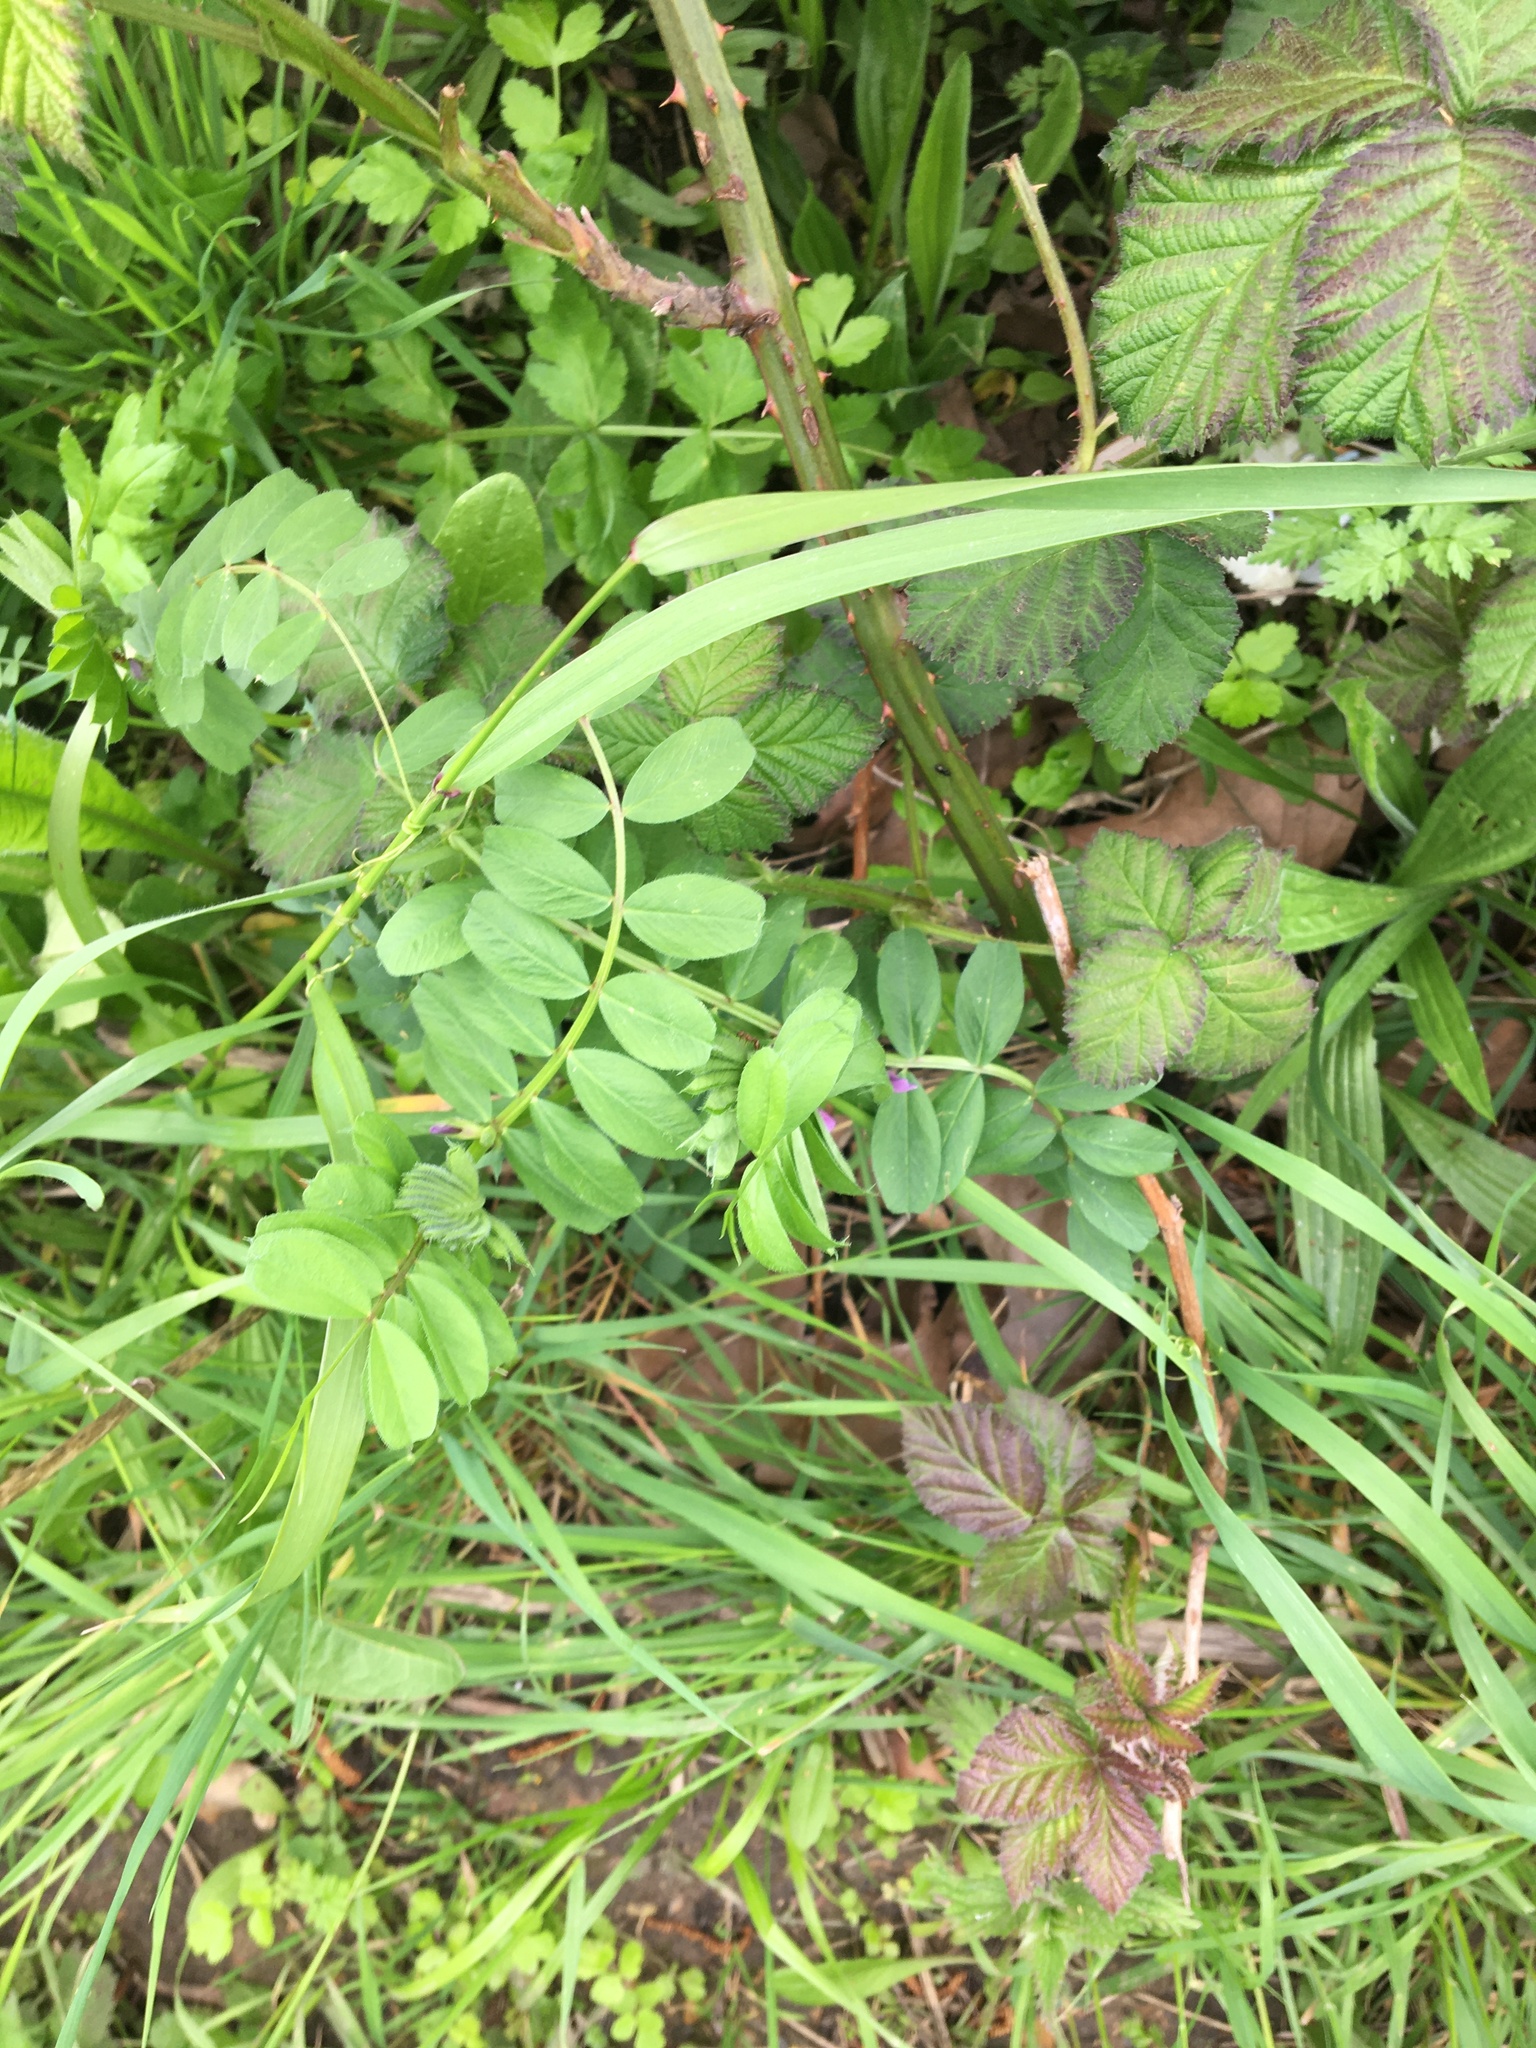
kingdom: Plantae
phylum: Tracheophyta
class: Magnoliopsida
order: Fabales
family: Fabaceae
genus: Vicia
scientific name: Vicia sativa
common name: Garden vetch
